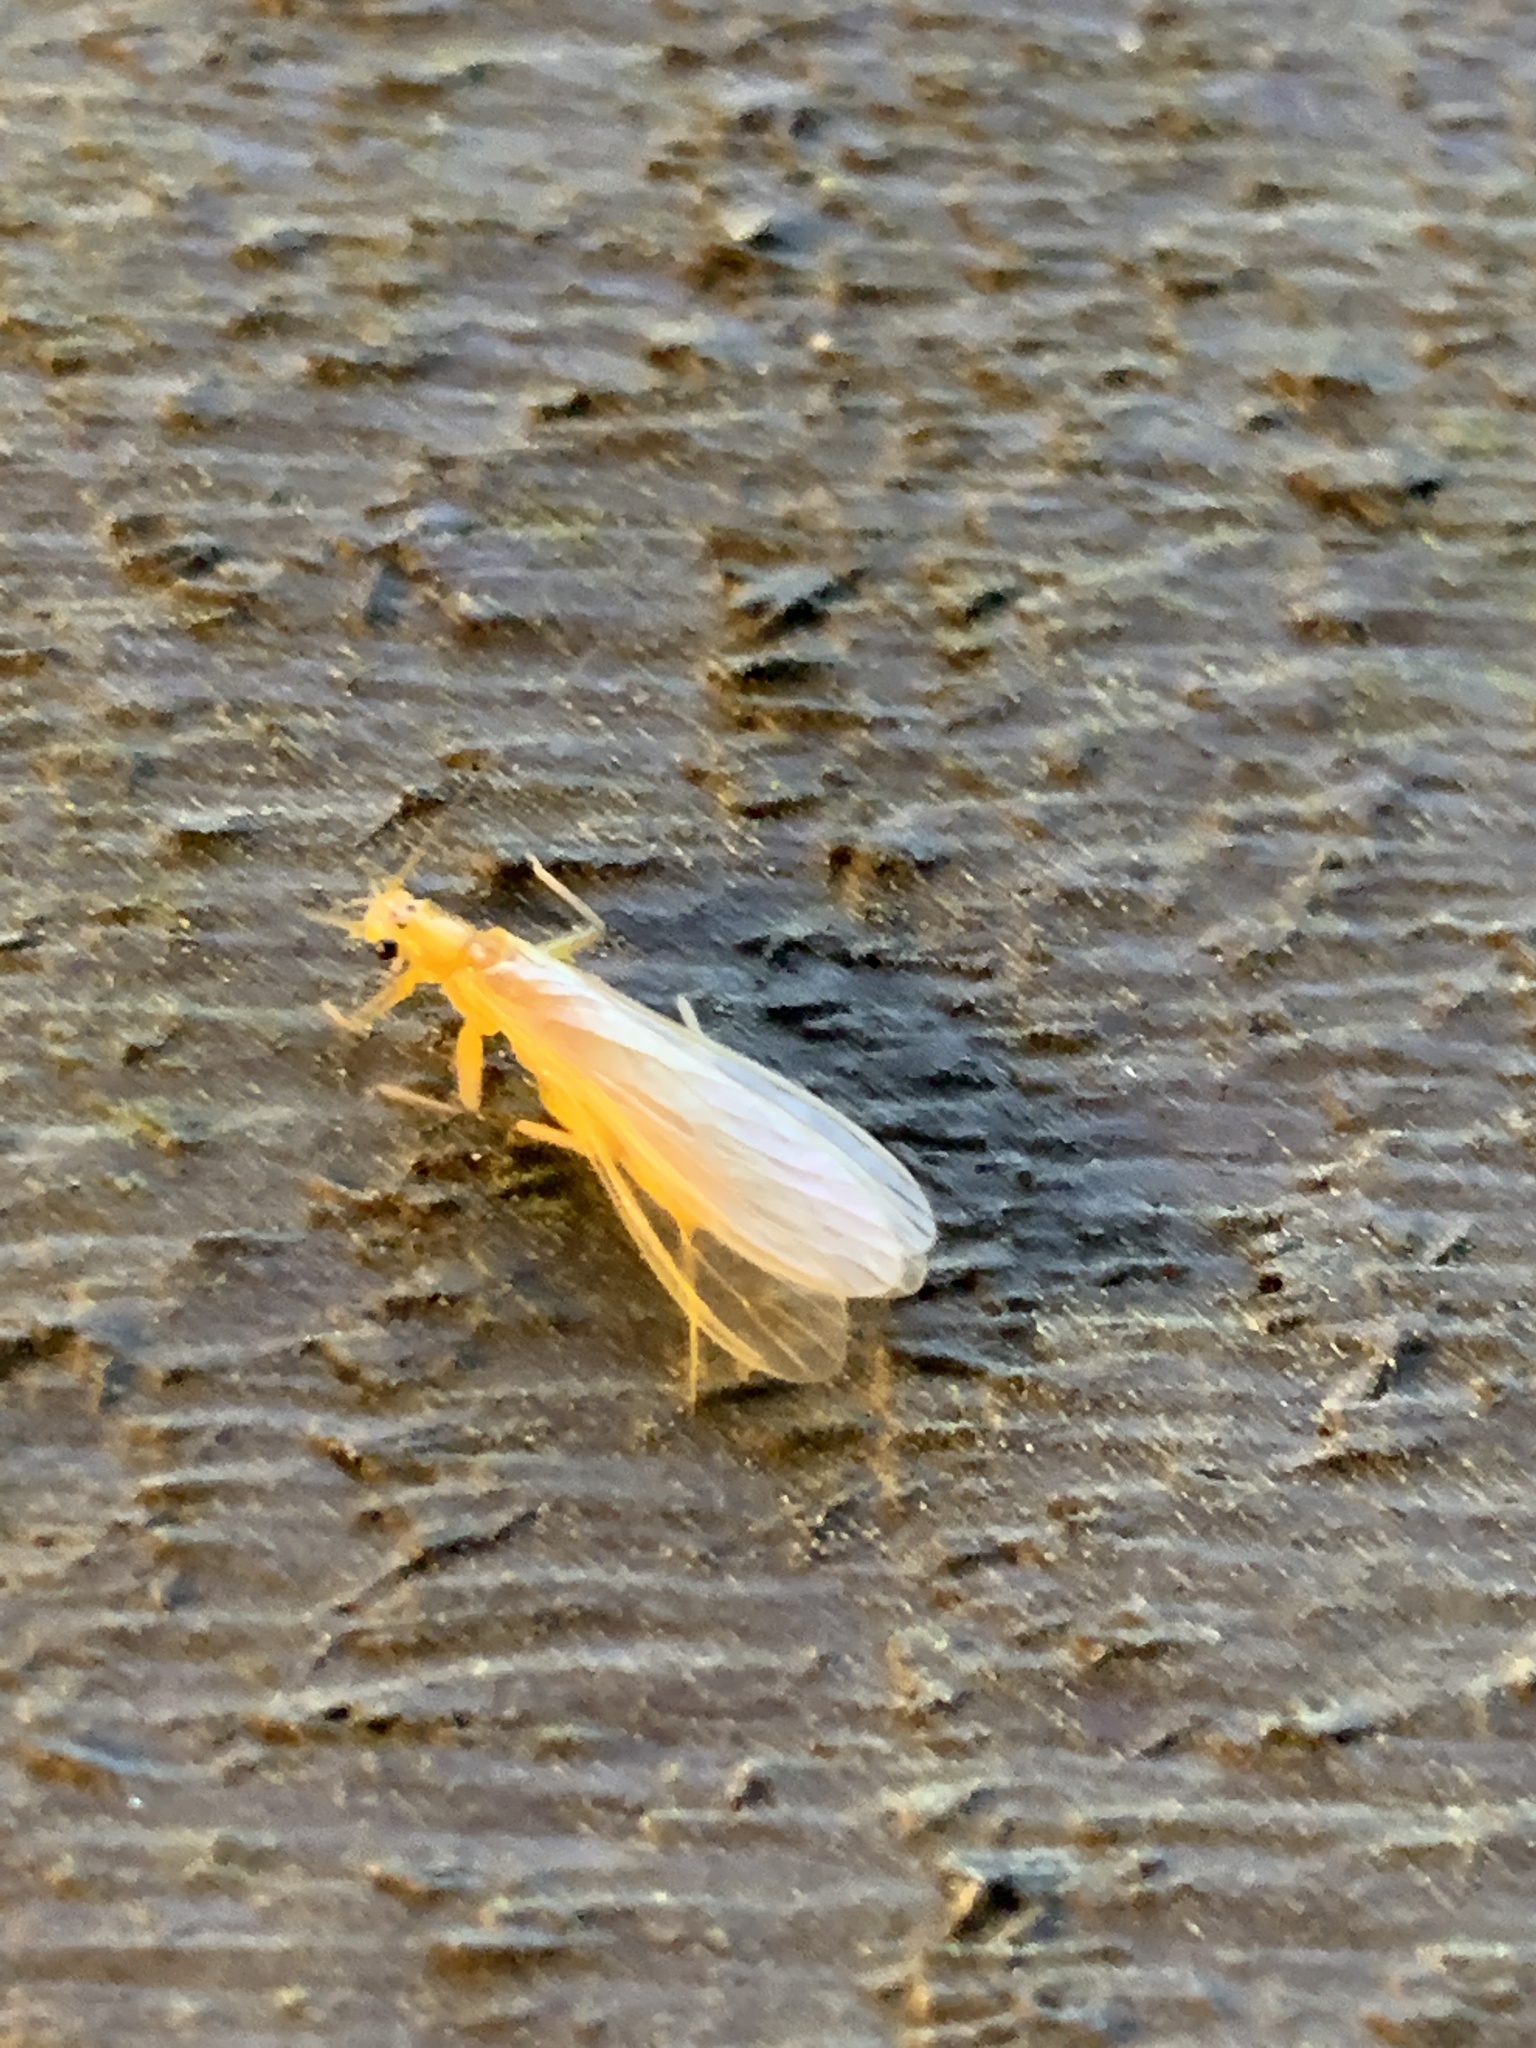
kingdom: Animalia
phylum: Arthropoda
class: Insecta
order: Plecoptera
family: Perlidae
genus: Eccoptura
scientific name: Eccoptura xanthenes
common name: Yellow stone
